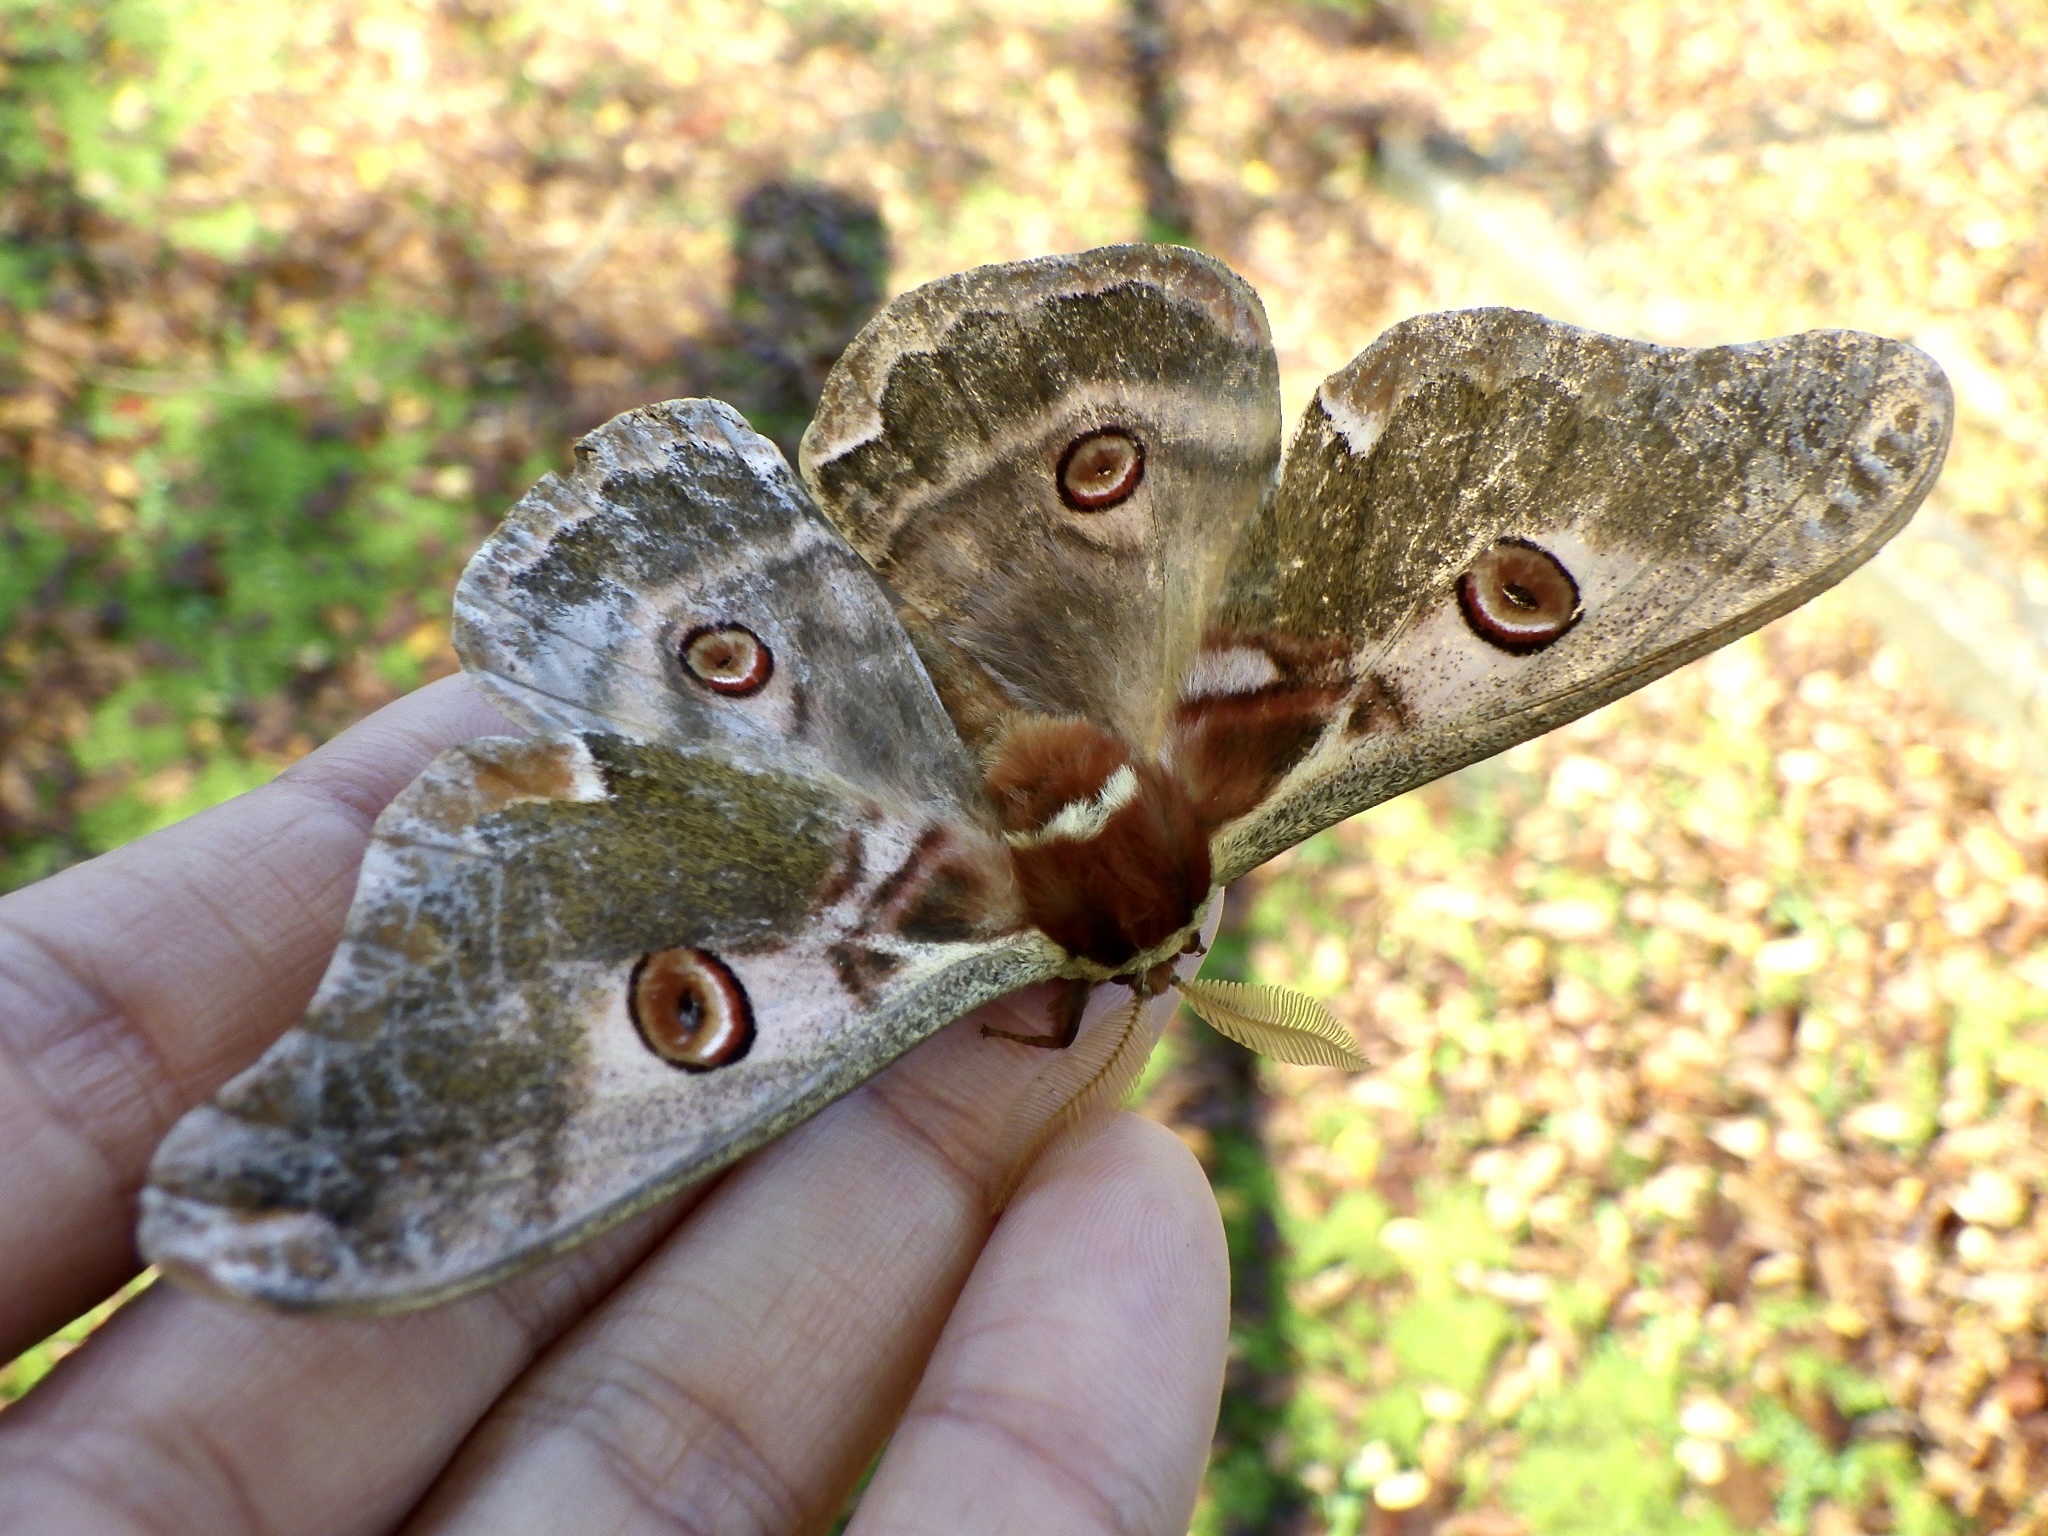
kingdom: Animalia
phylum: Arthropoda
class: Insecta
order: Lepidoptera
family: Saturniidae
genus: Saturnia
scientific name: Saturnia jonasii
